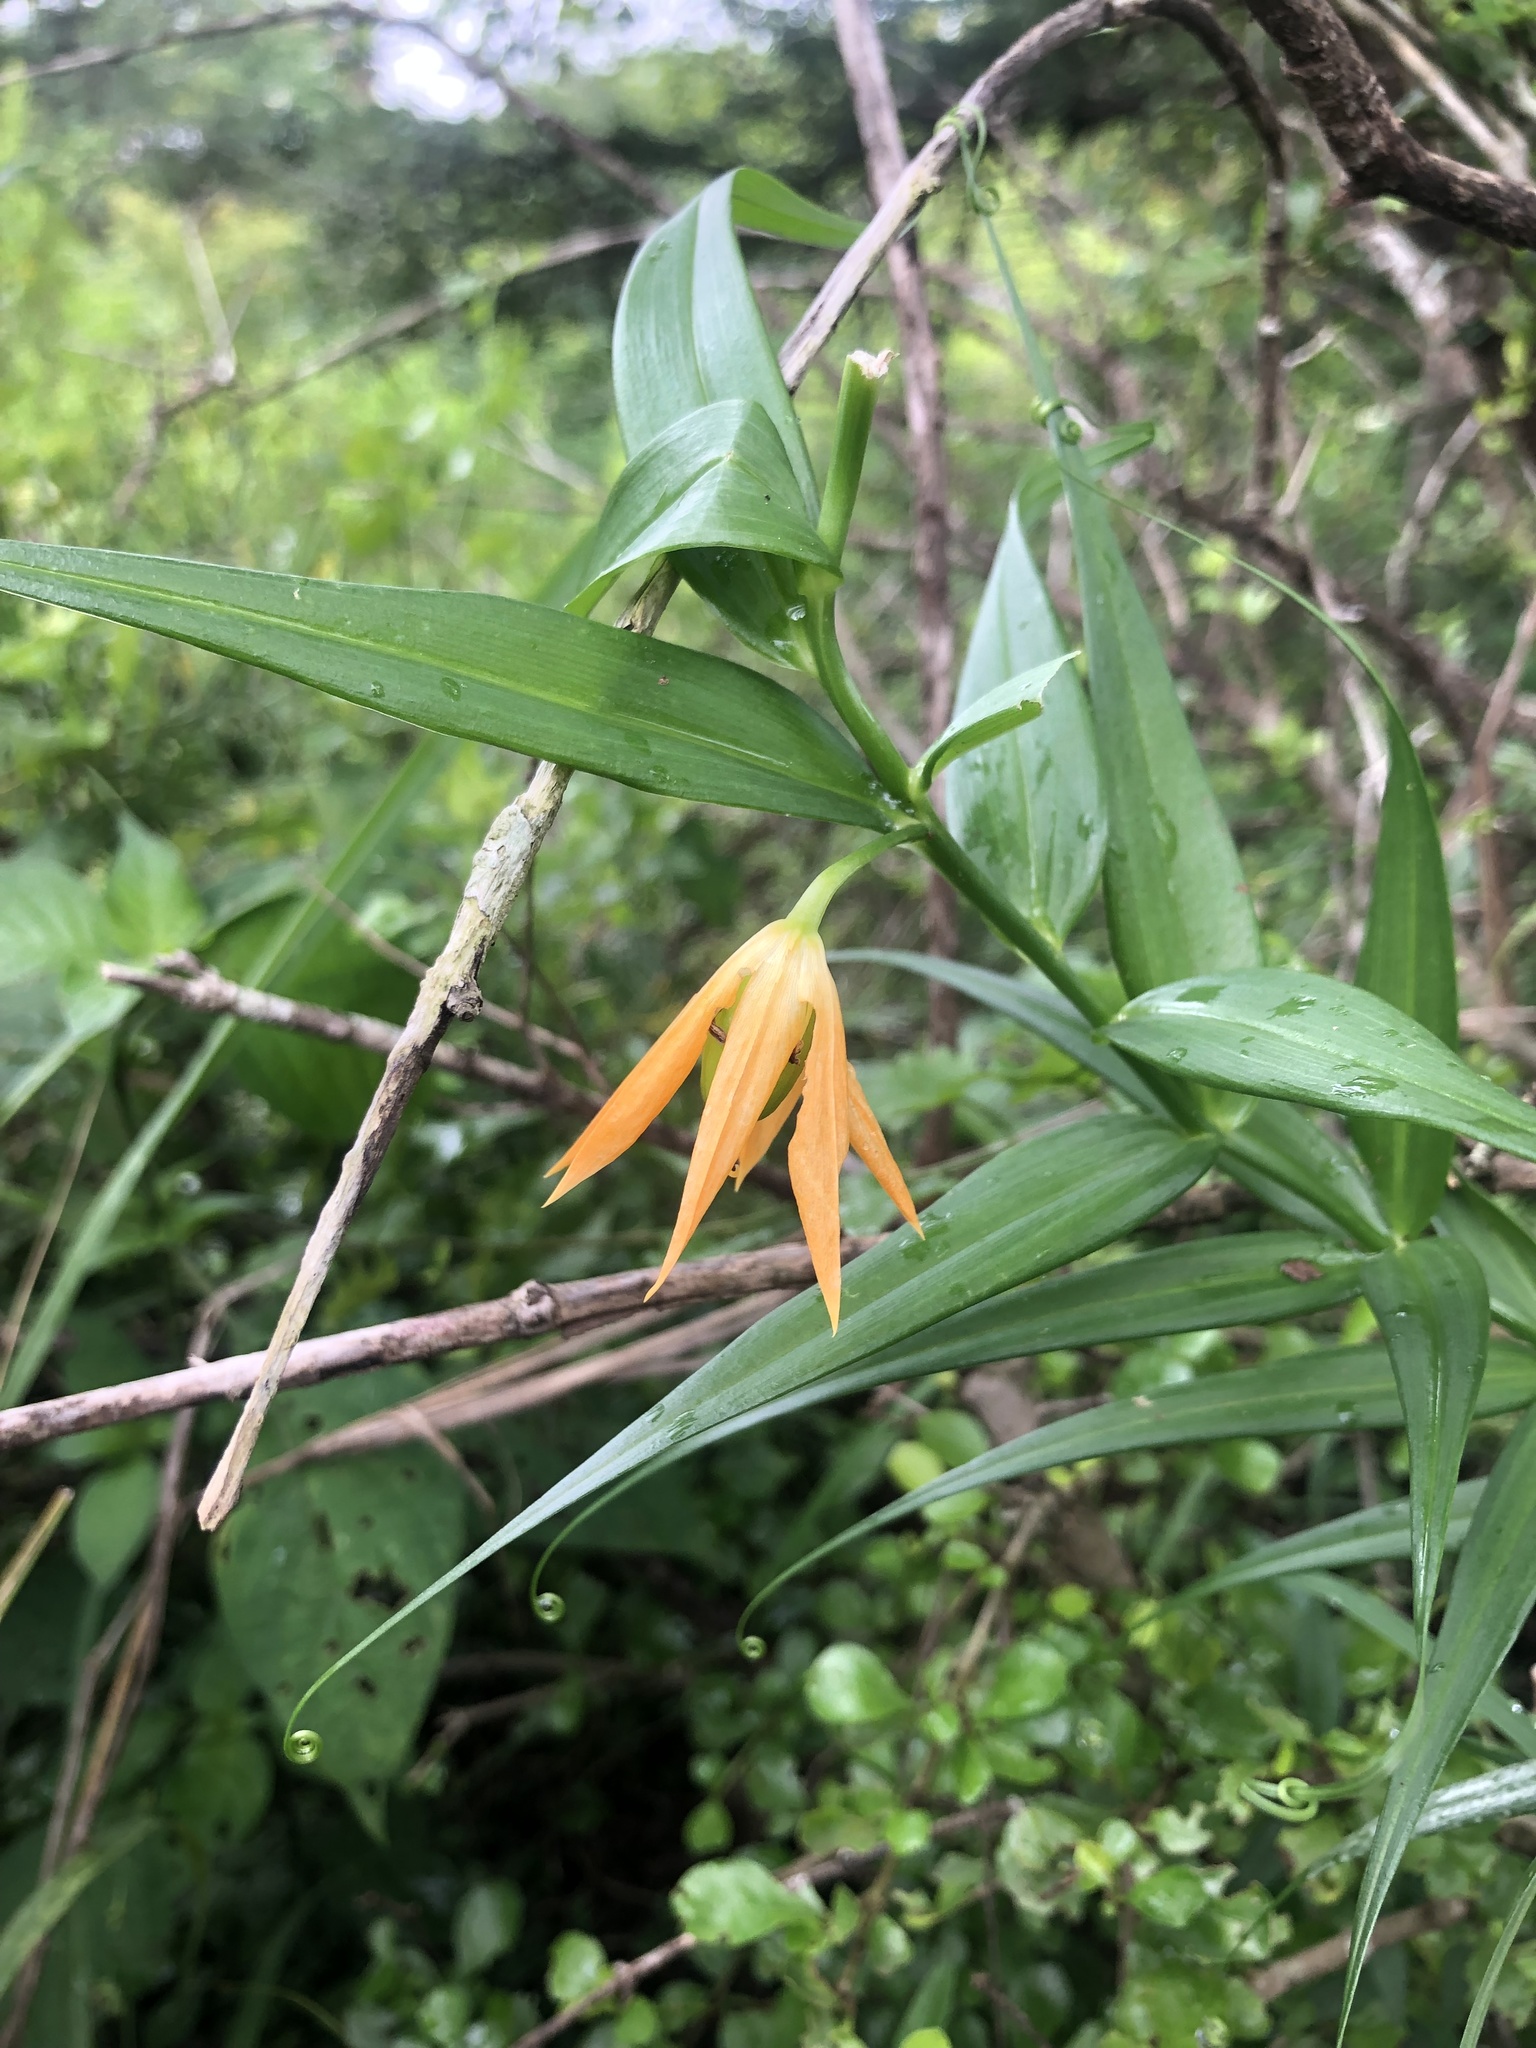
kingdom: Plantae
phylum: Tracheophyta
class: Liliopsida
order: Liliales
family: Colchicaceae
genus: Gloriosa
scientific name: Gloriosa modesta
